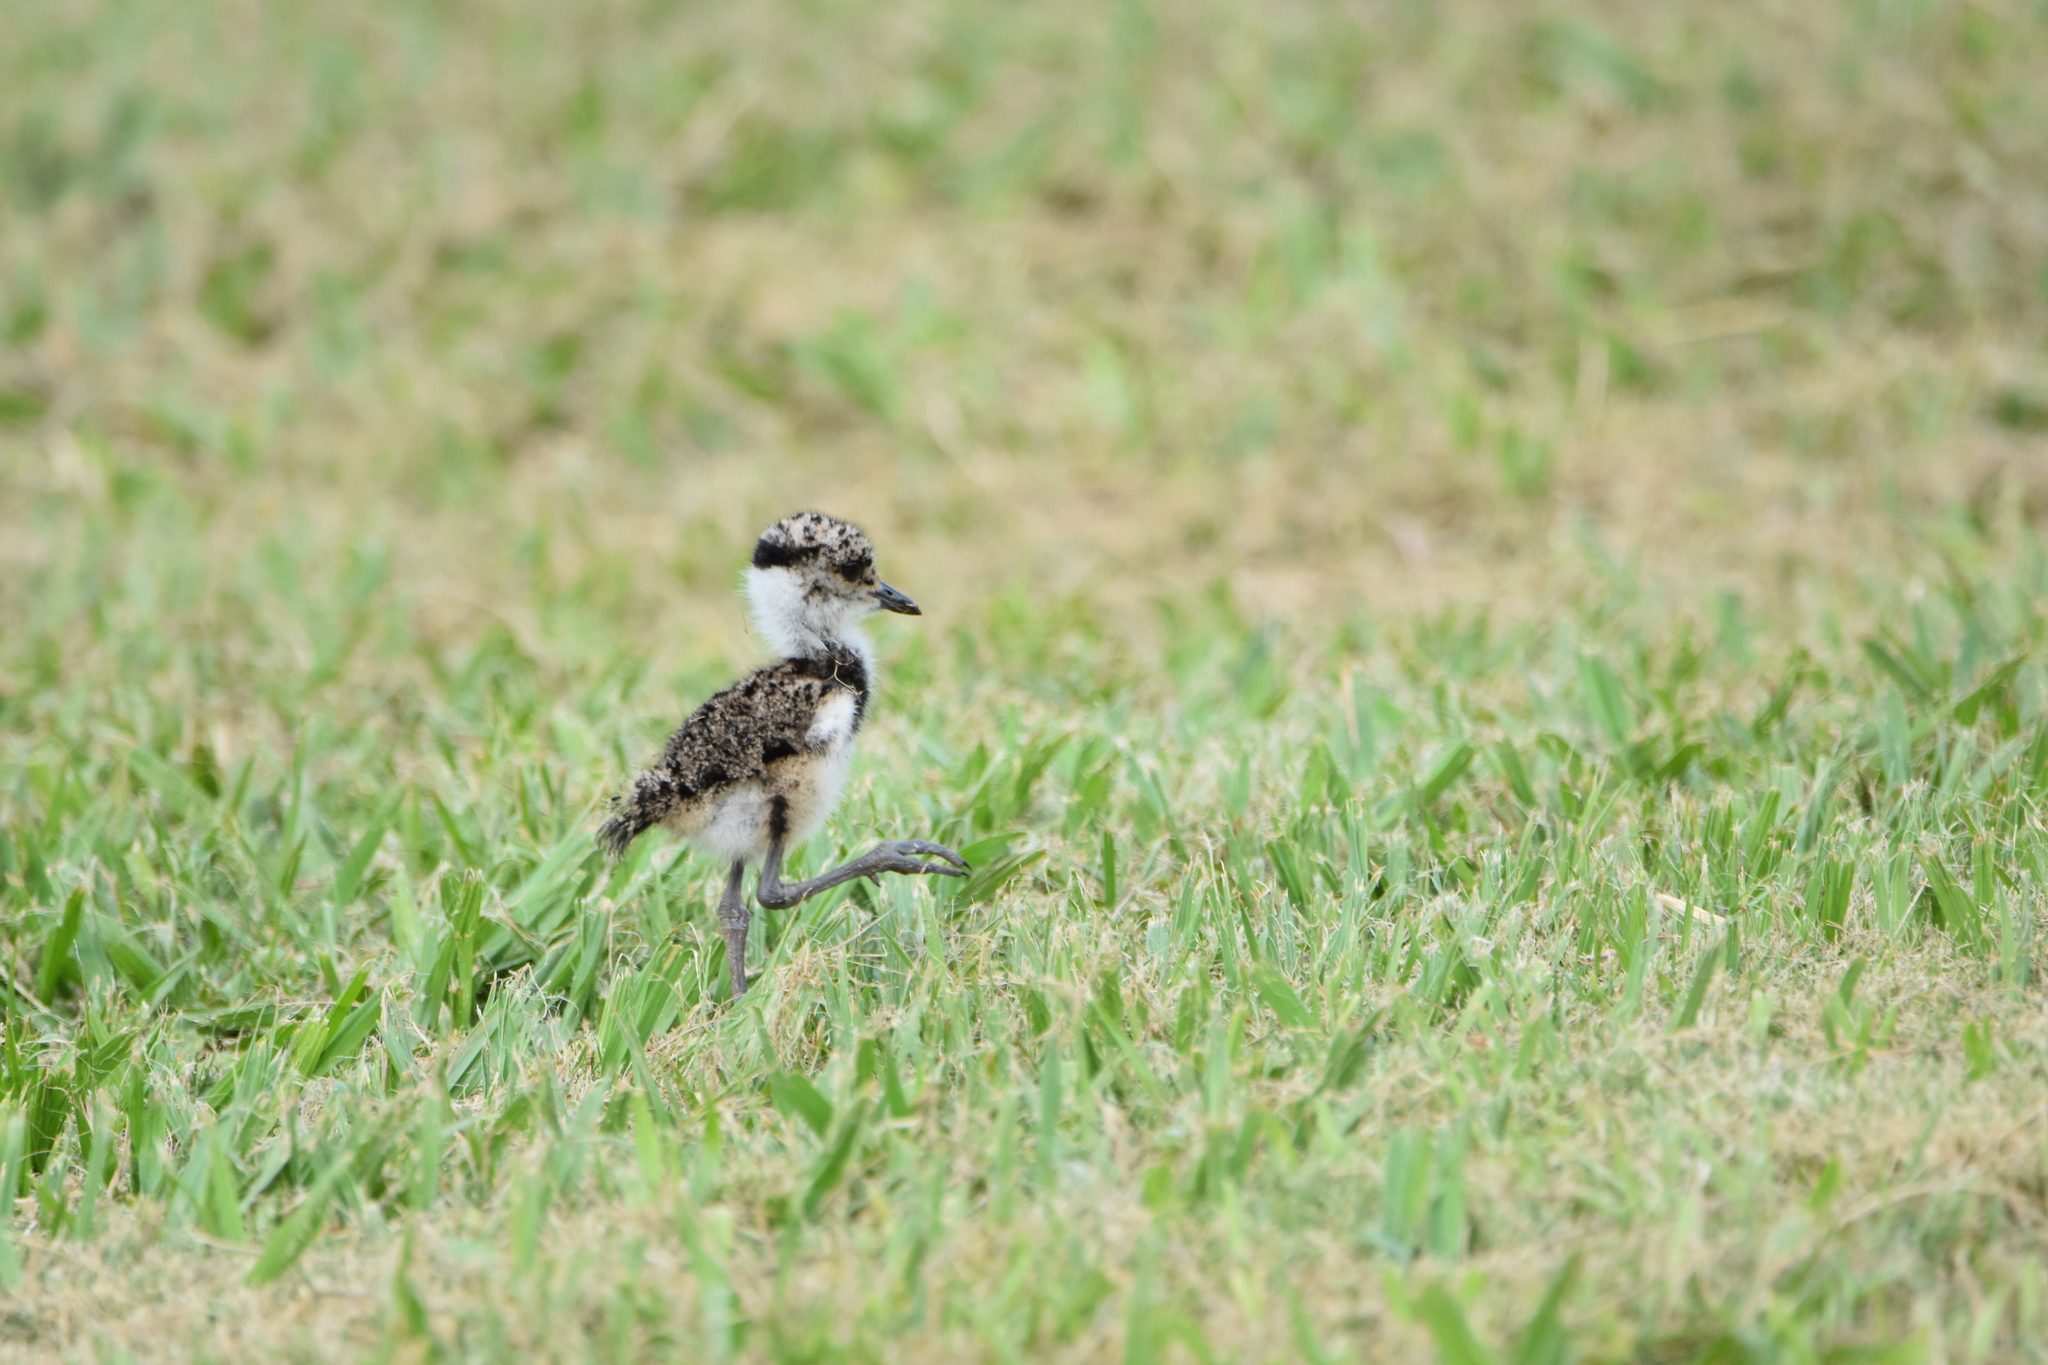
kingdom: Animalia
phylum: Chordata
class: Aves
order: Charadriiformes
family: Charadriidae
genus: Vanellus
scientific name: Vanellus chilensis
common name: Southern lapwing
